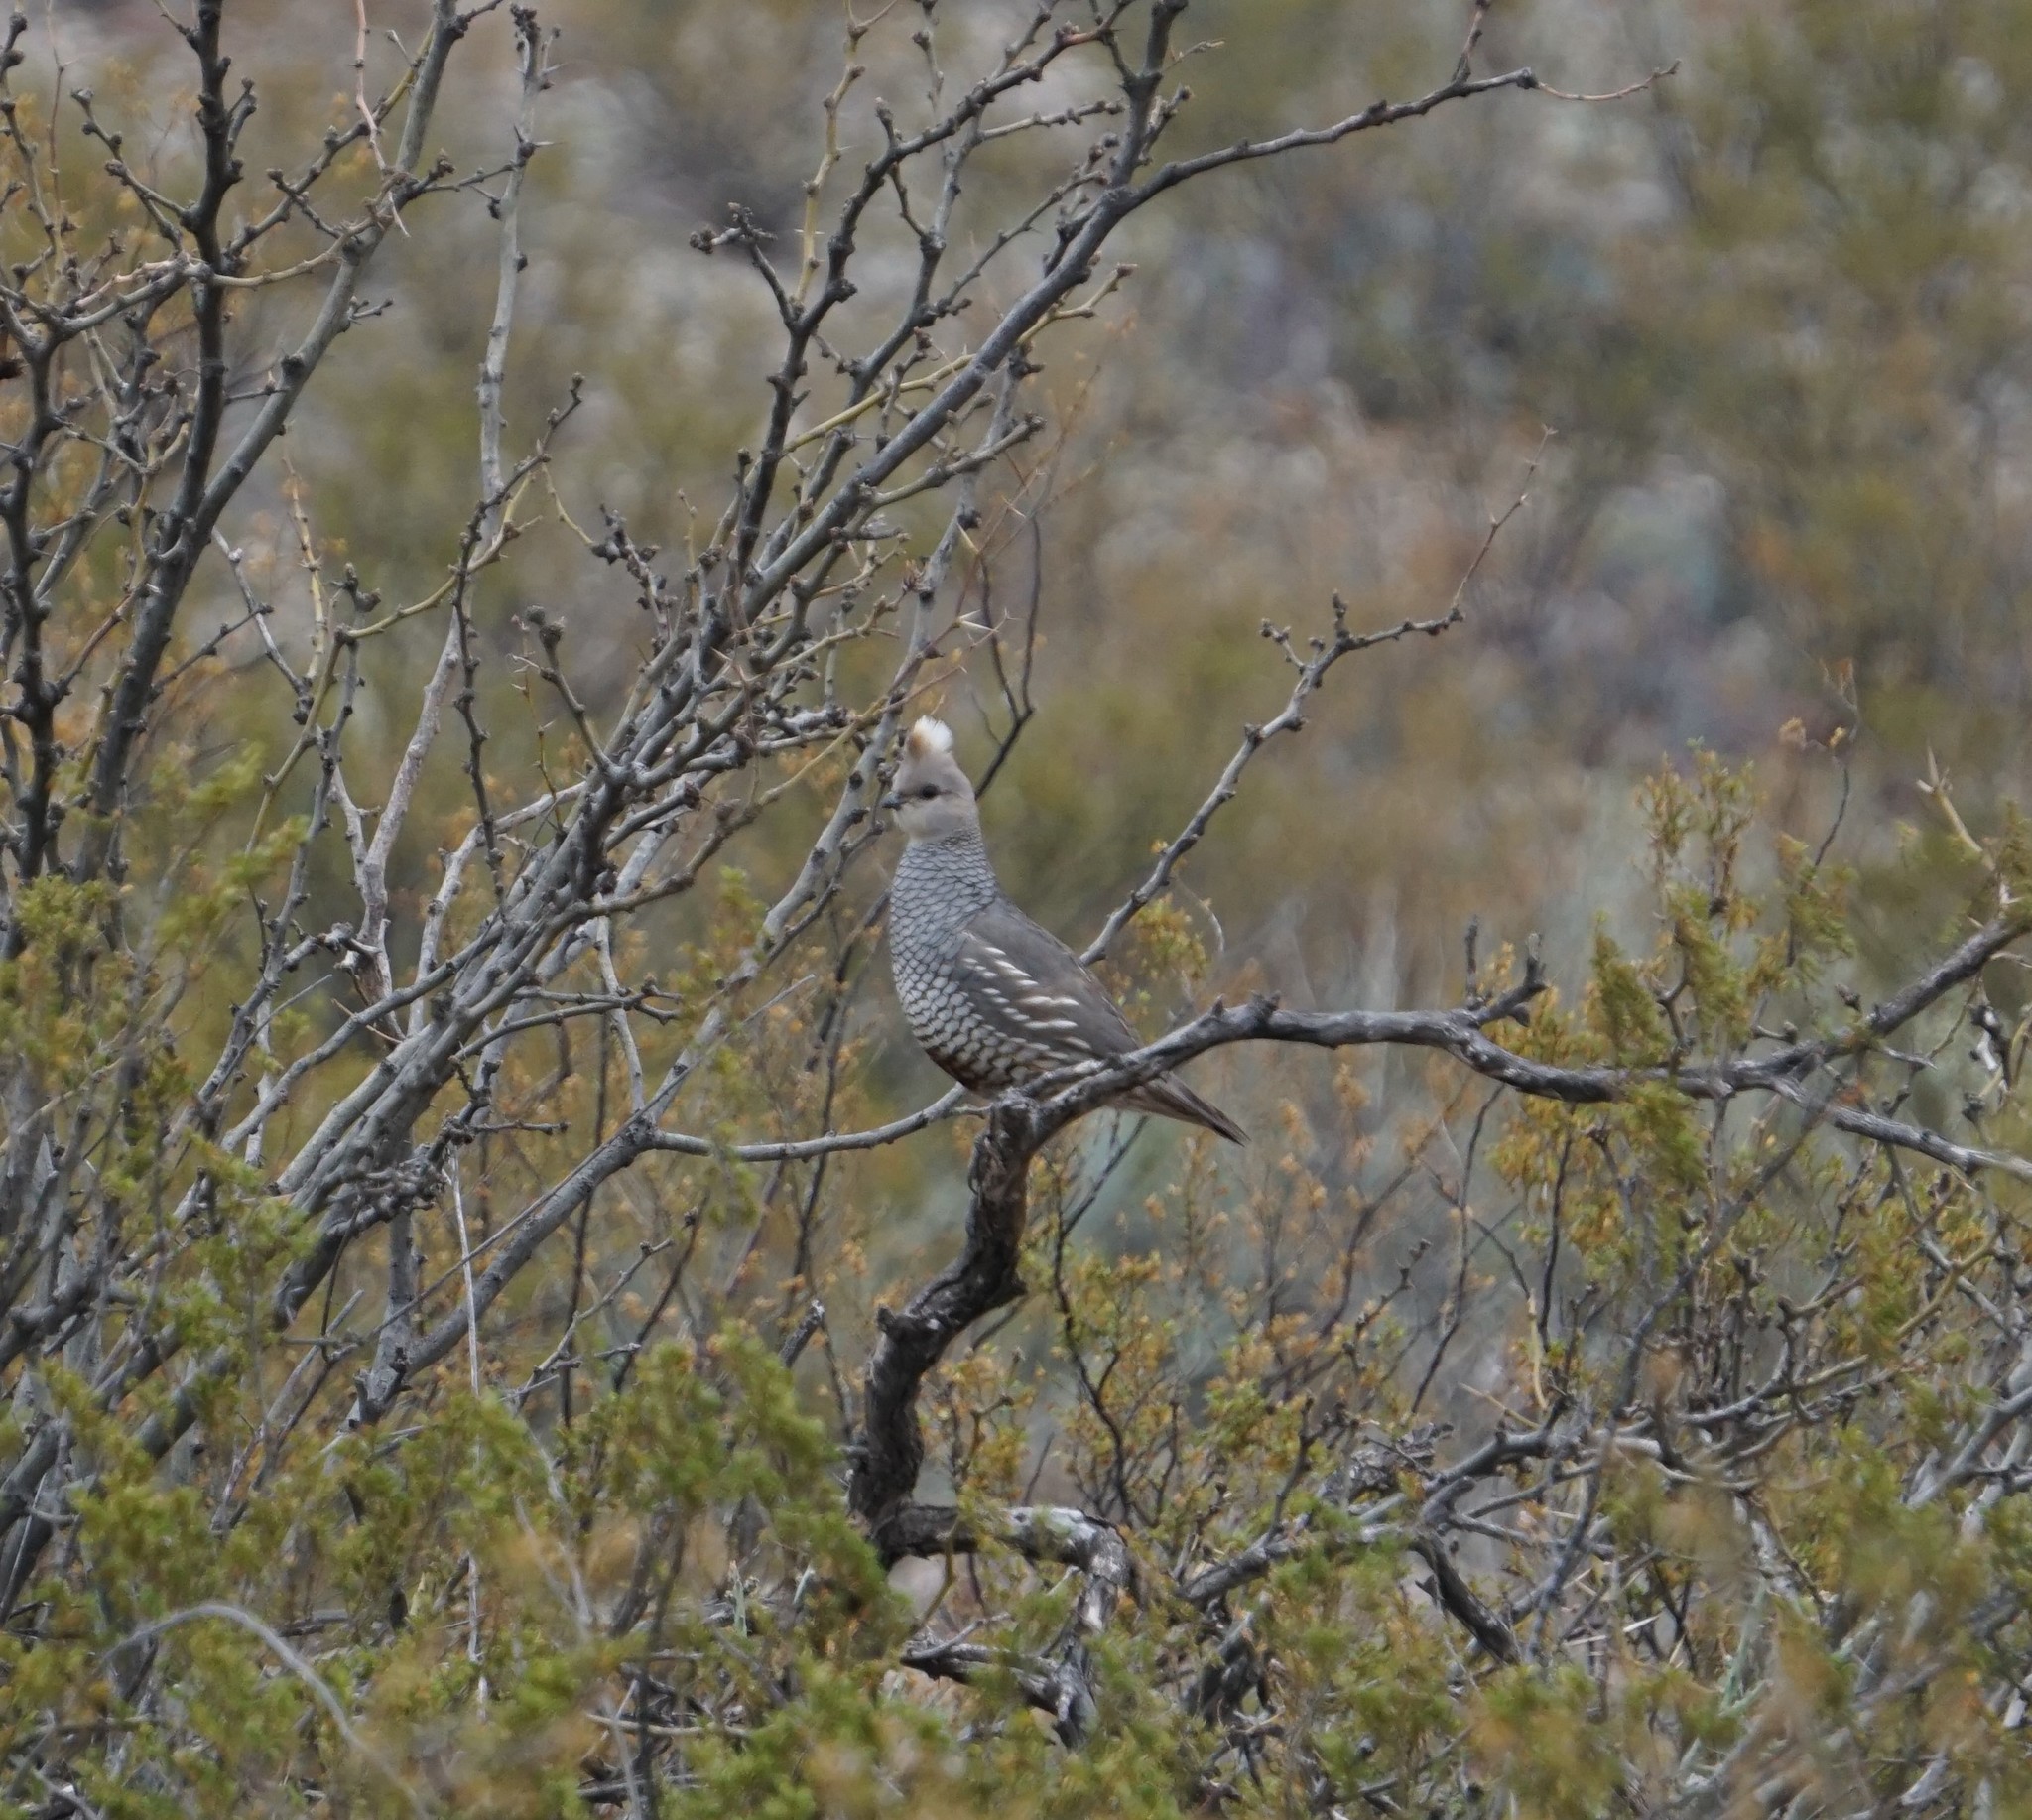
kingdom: Animalia
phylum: Chordata
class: Aves
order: Galliformes
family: Odontophoridae
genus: Callipepla
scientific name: Callipepla squamata
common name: Scaled quail
